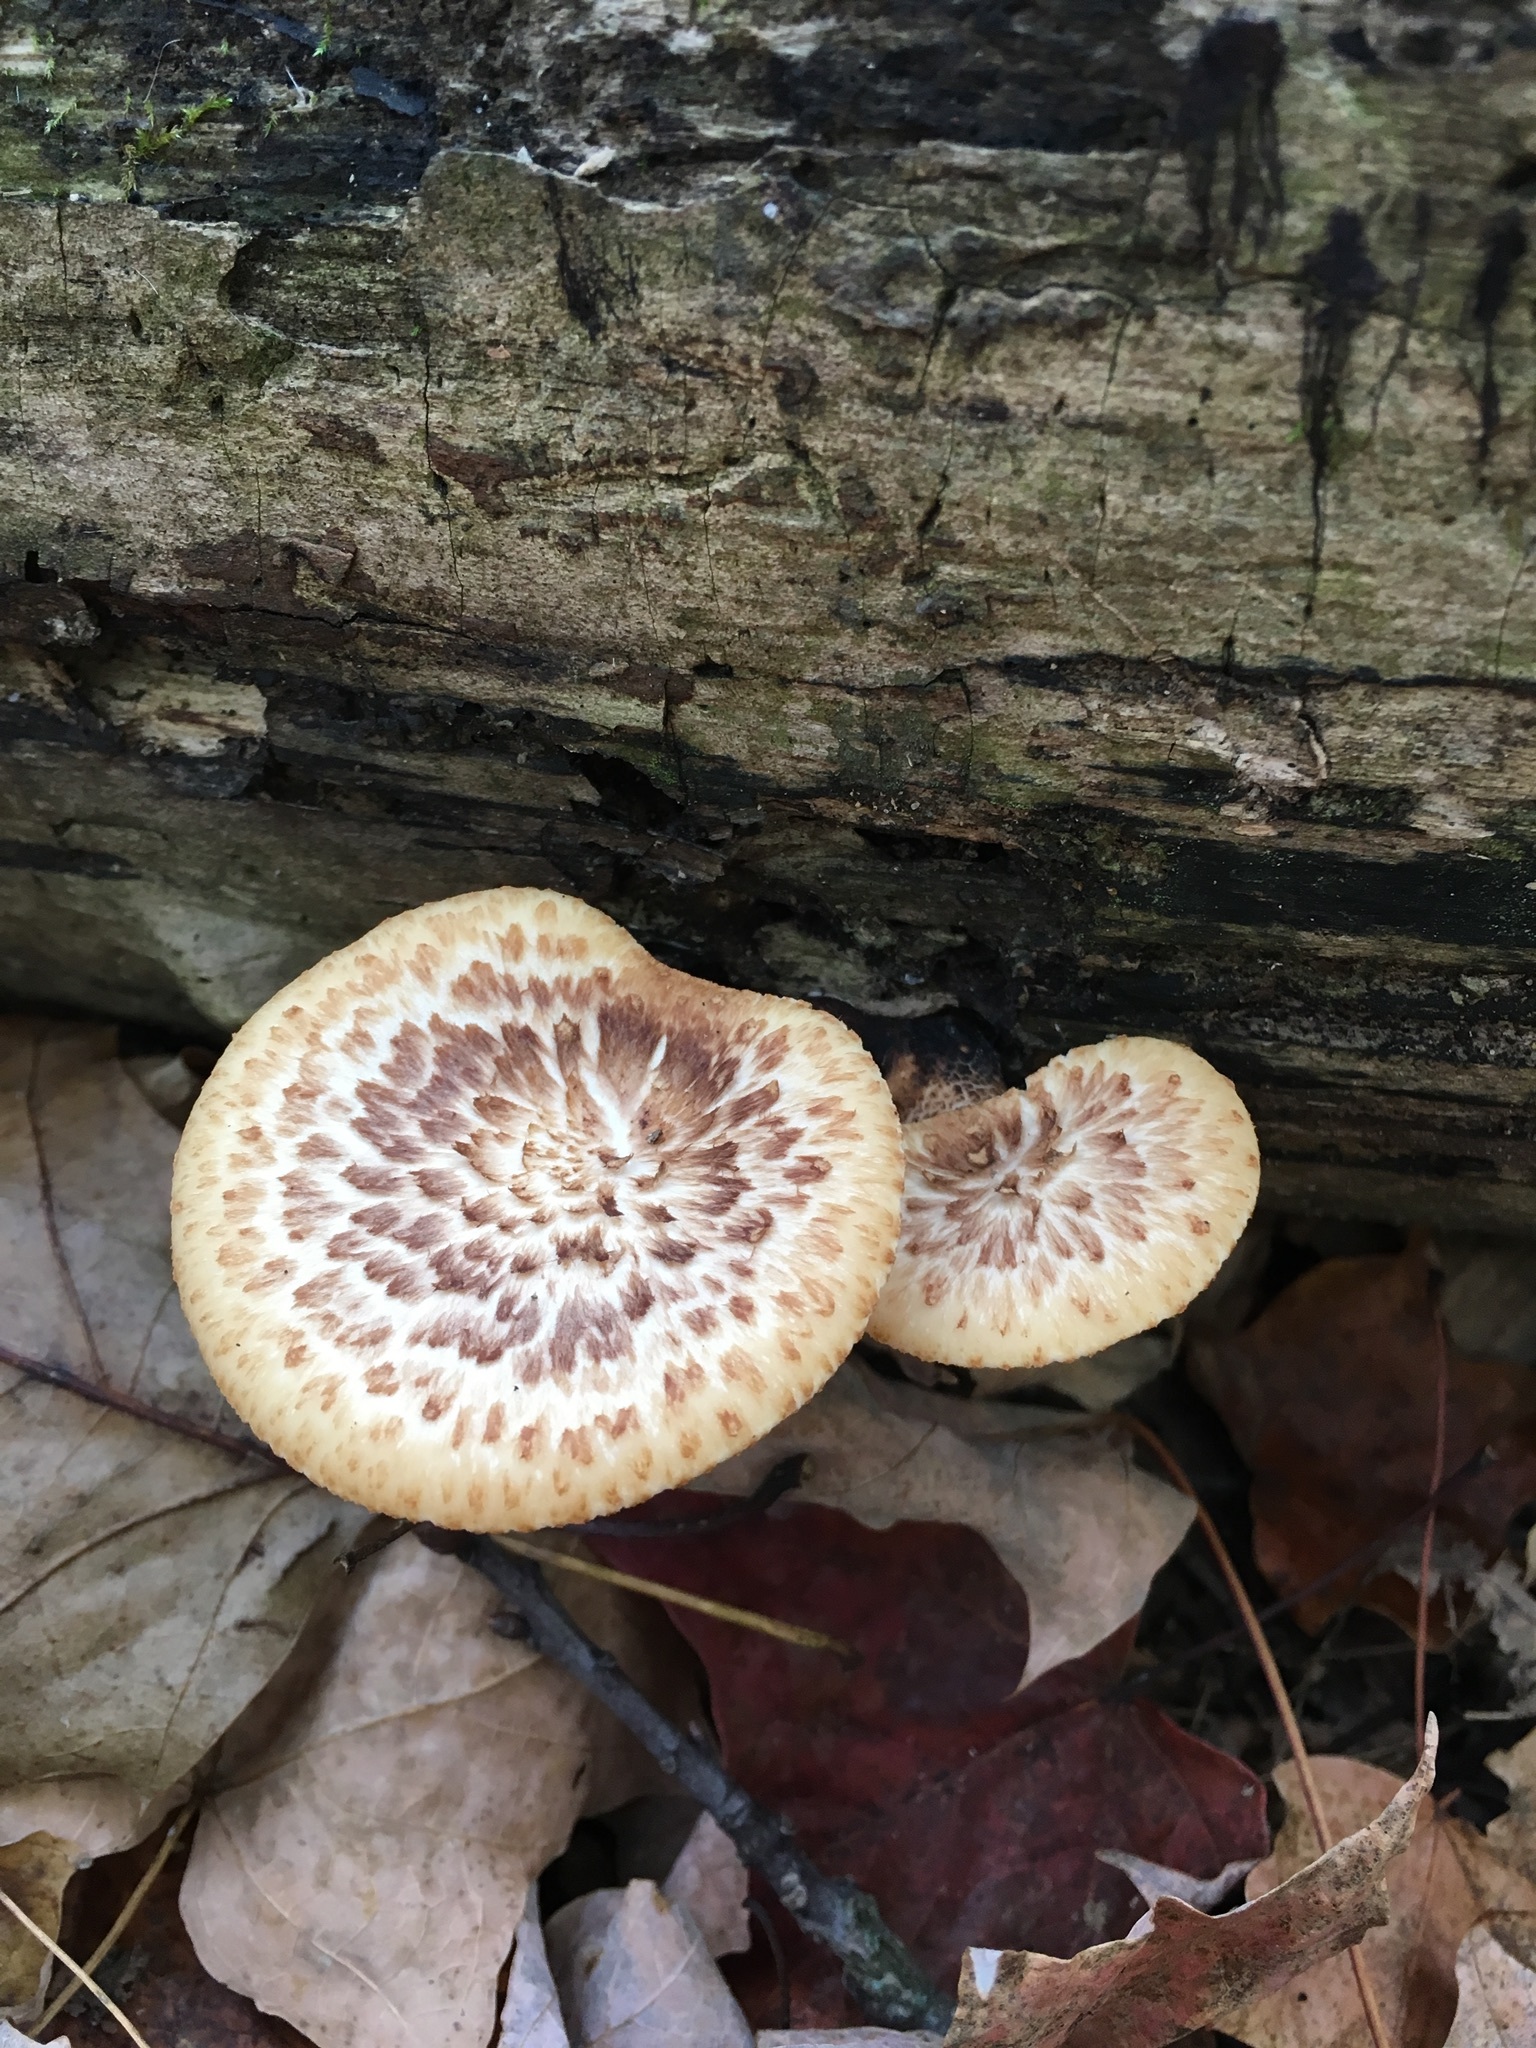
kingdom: Fungi
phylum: Basidiomycota
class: Agaricomycetes
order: Polyporales
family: Polyporaceae
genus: Cerioporus
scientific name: Cerioporus squamosus
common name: Dryad's saddle
